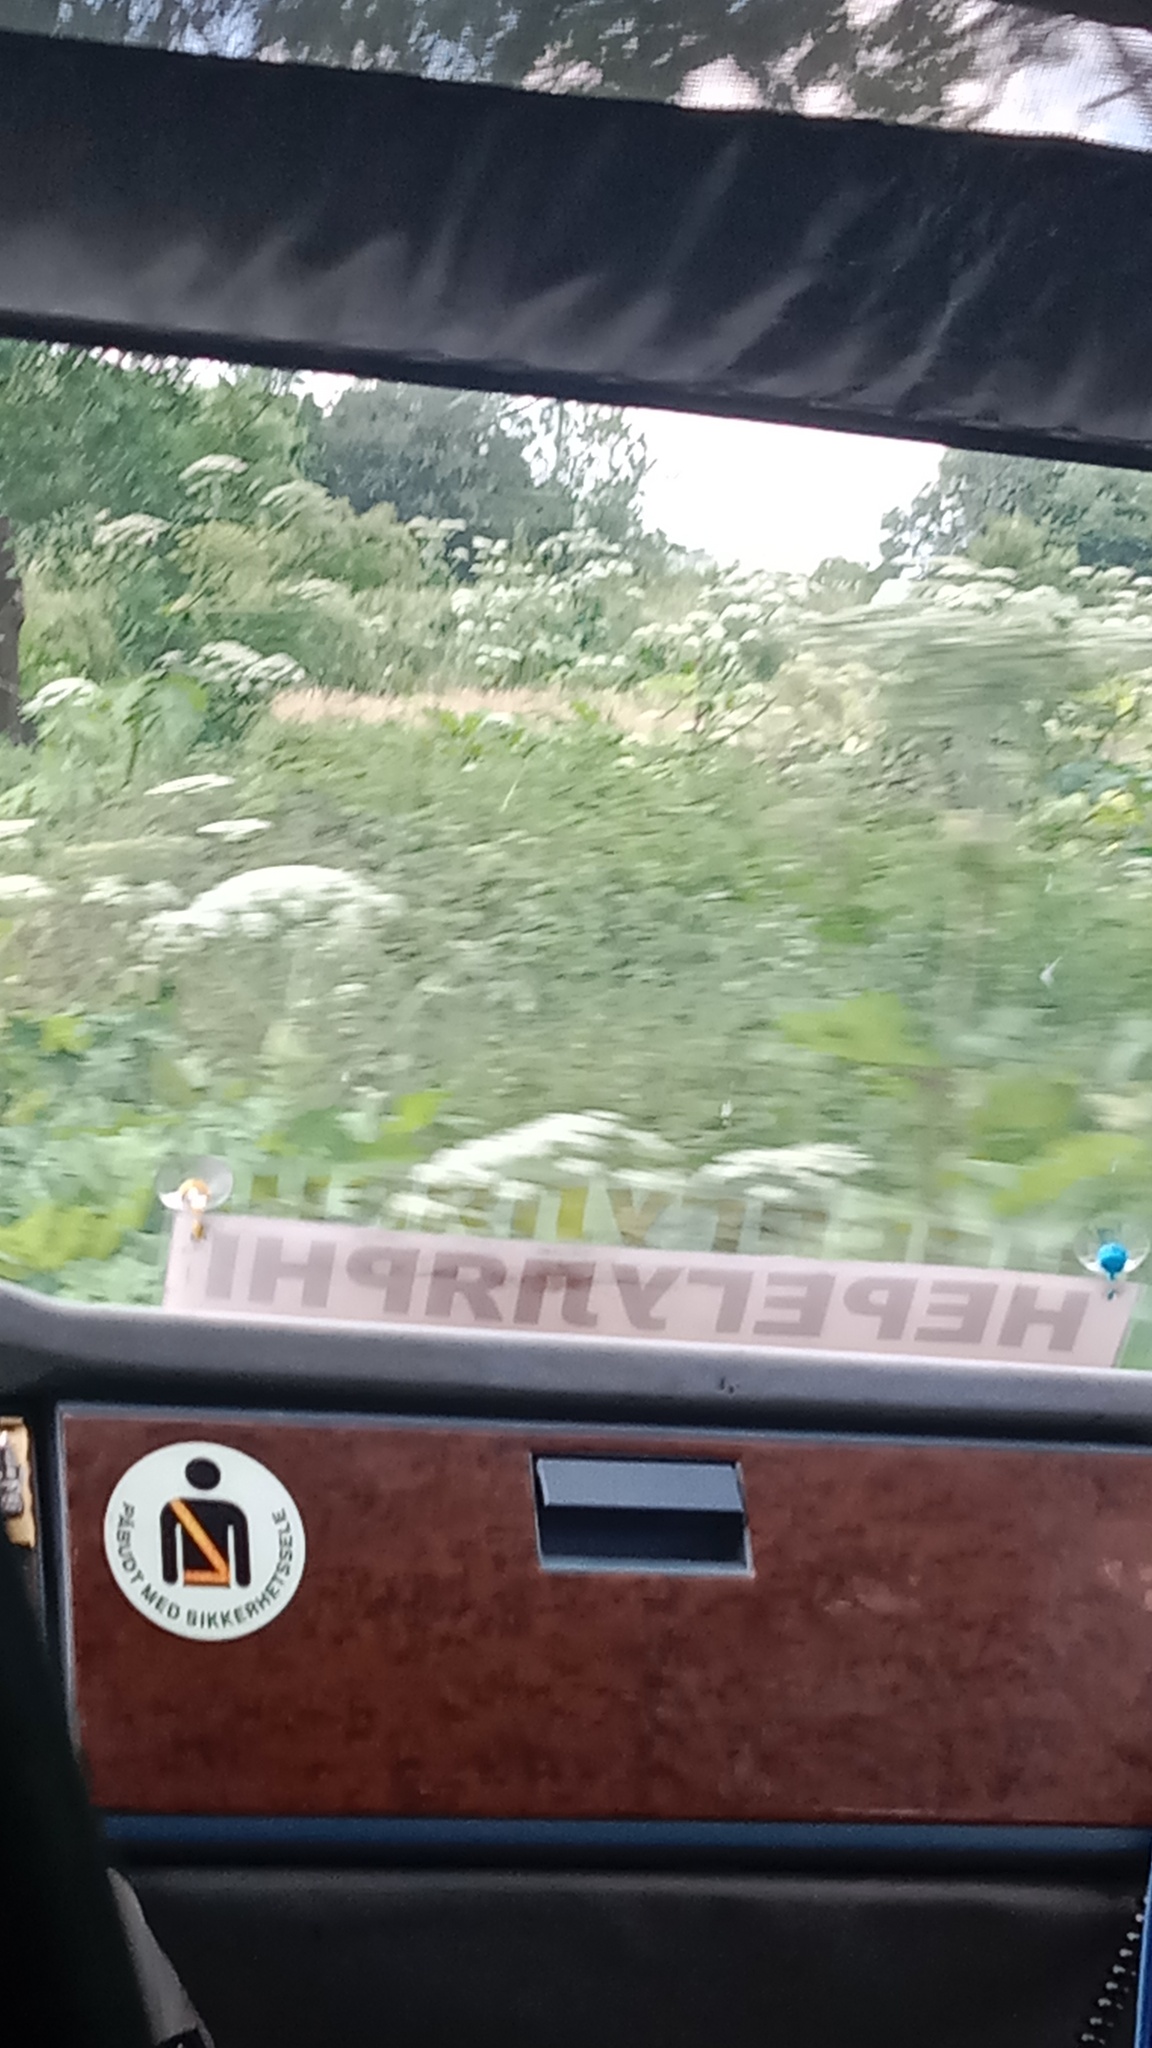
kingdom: Plantae
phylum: Tracheophyta
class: Magnoliopsida
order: Apiales
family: Apiaceae
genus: Heracleum
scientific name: Heracleum sosnowskyi
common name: Sosnowsky's hogweed
